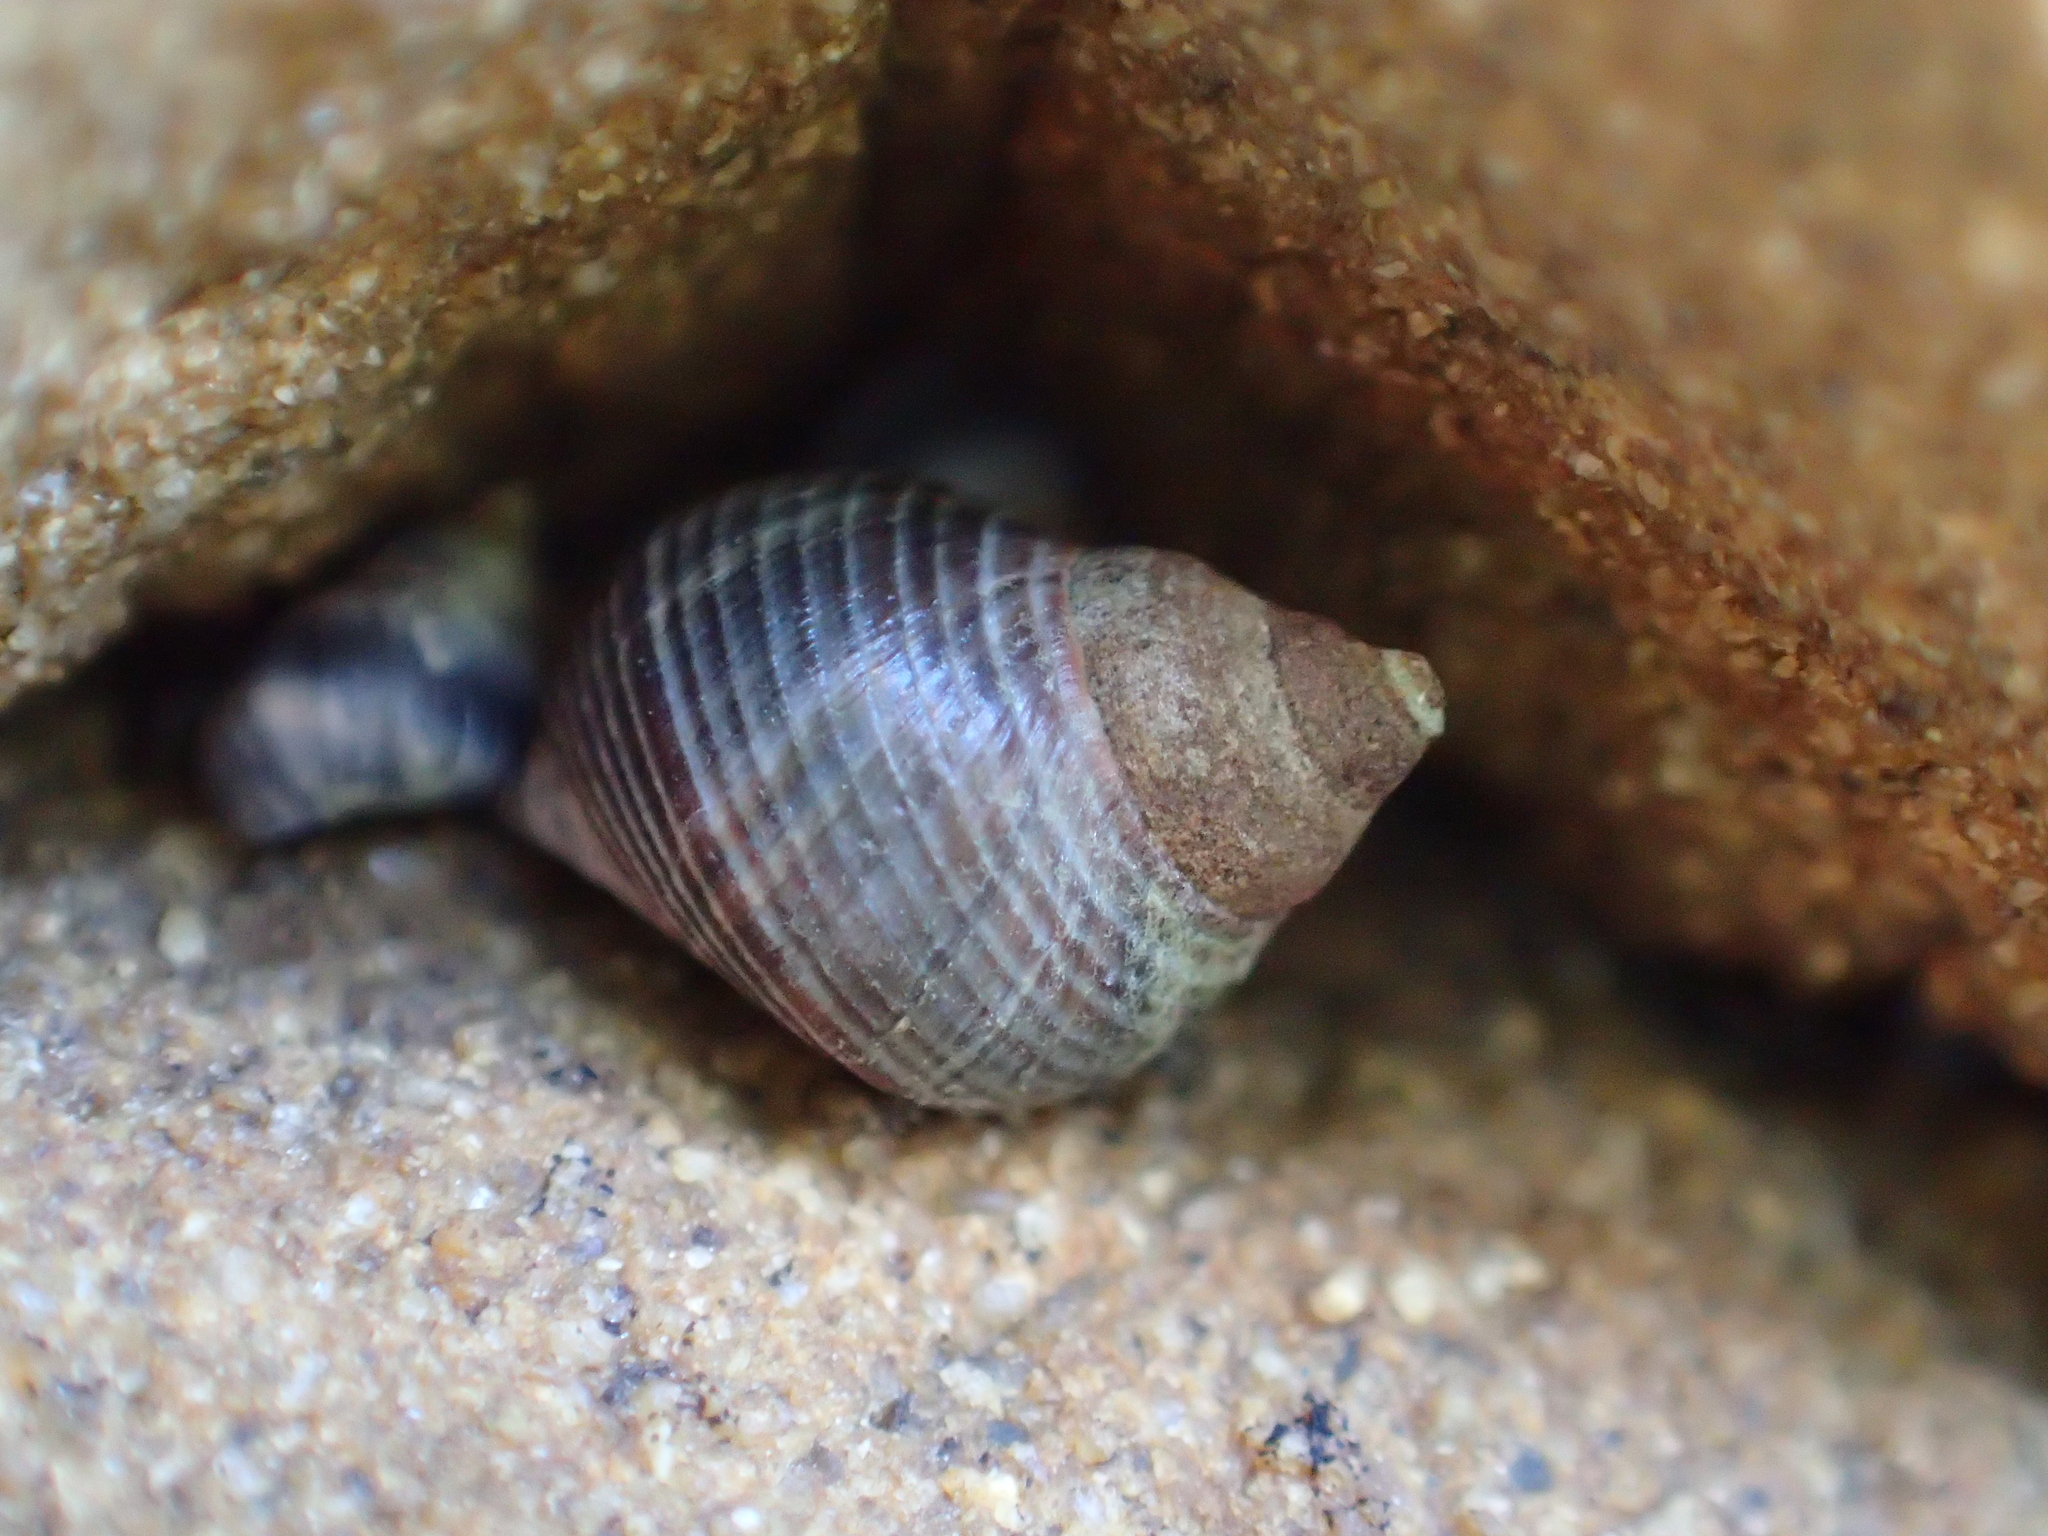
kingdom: Animalia
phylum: Mollusca
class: Gastropoda
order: Littorinimorpha
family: Littorinidae
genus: Austrolittorina
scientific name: Austrolittorina cincta
